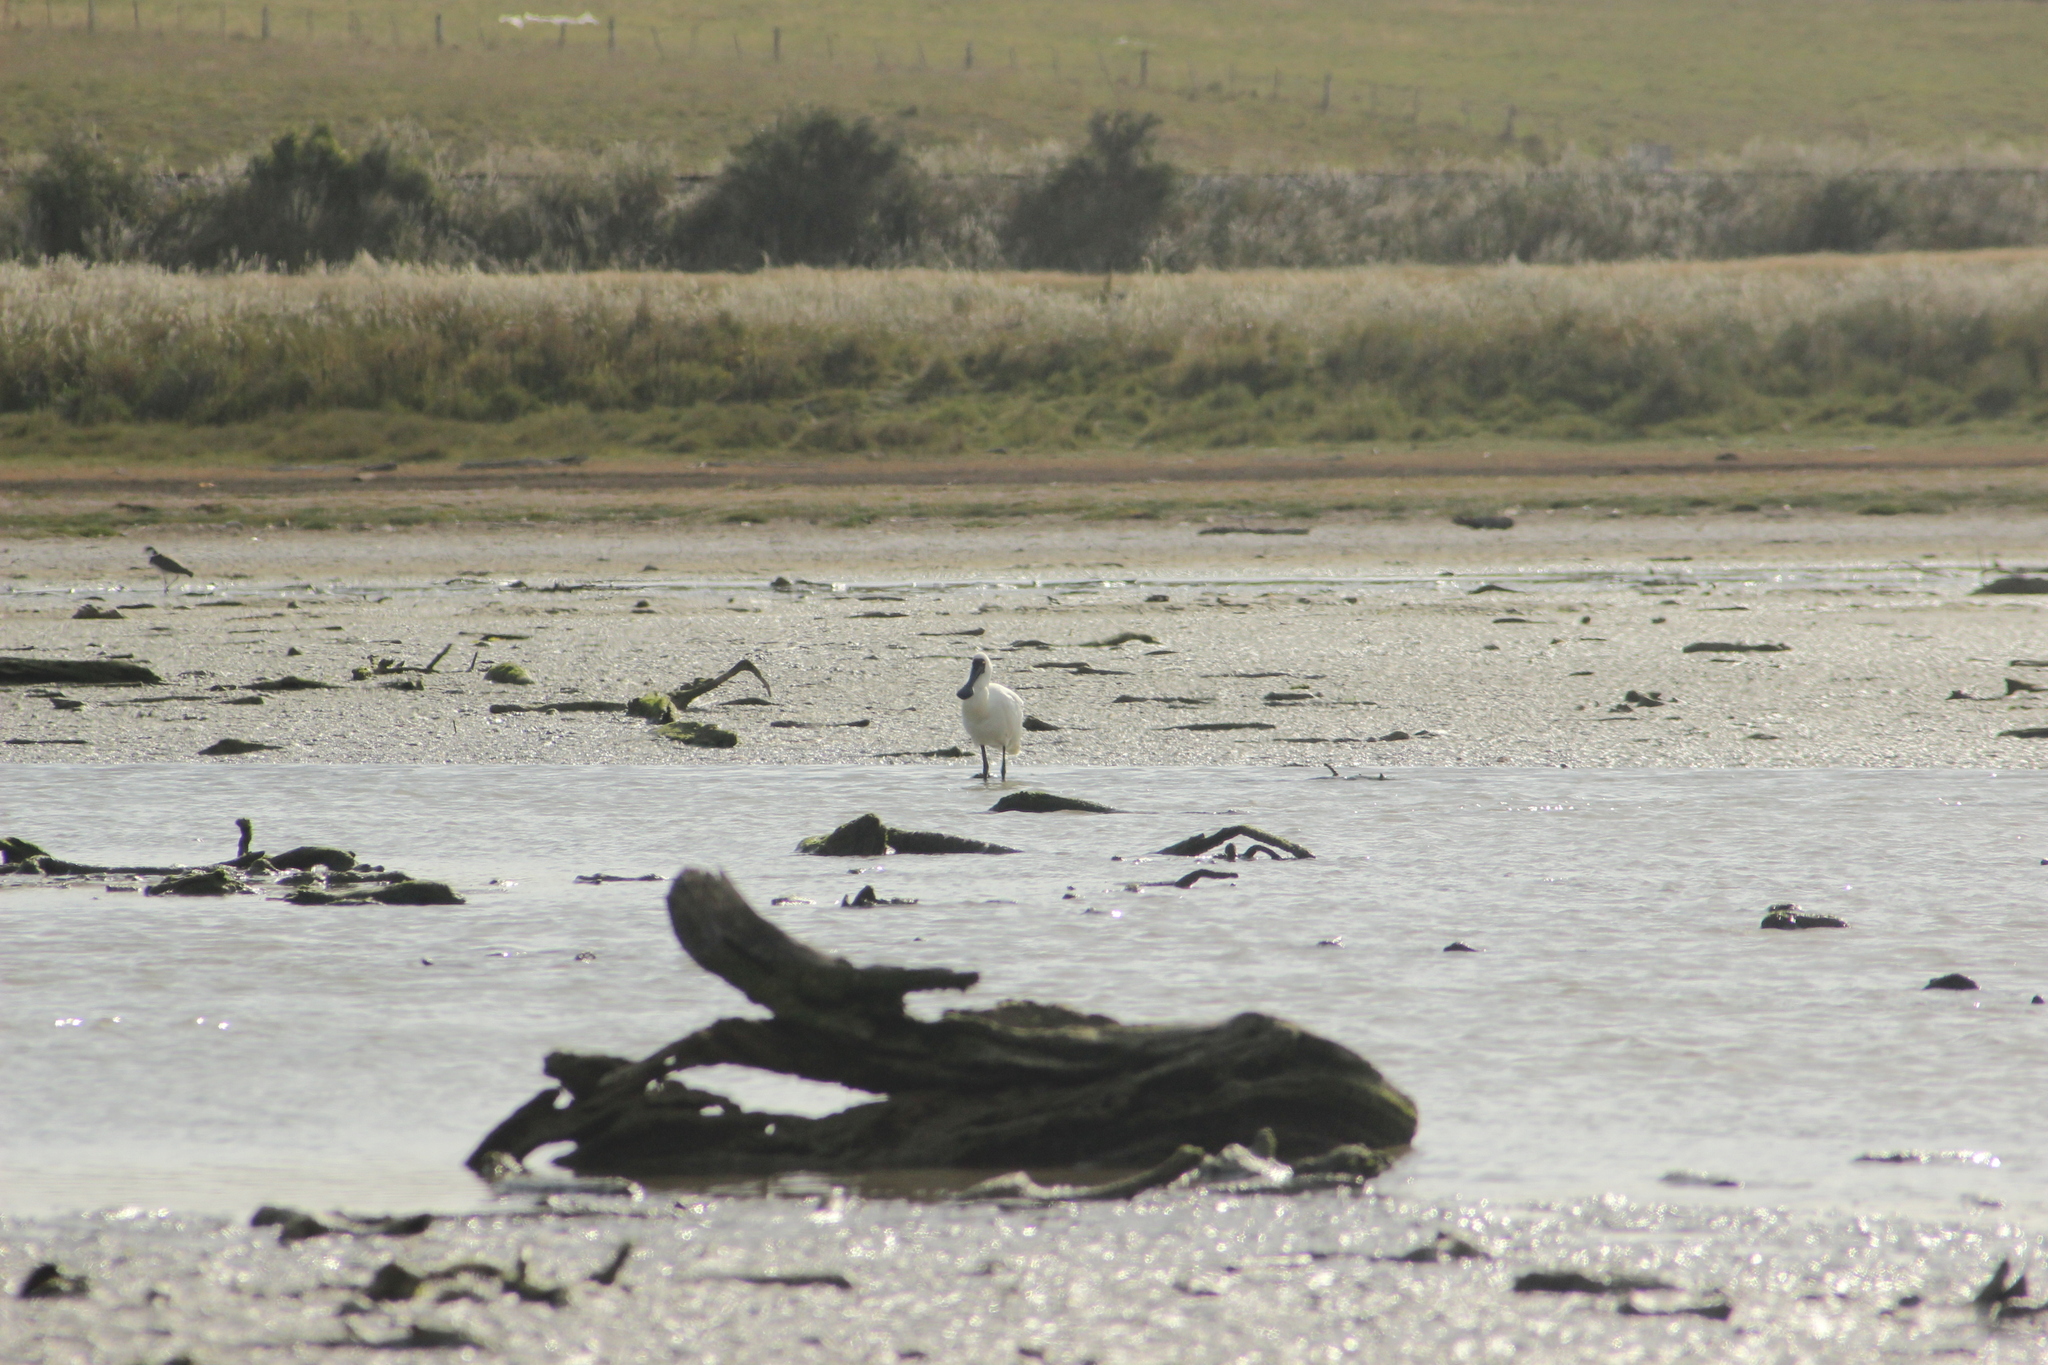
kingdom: Animalia
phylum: Chordata
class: Aves
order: Pelecaniformes
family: Threskiornithidae
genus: Platalea
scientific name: Platalea regia
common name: Royal spoonbill
